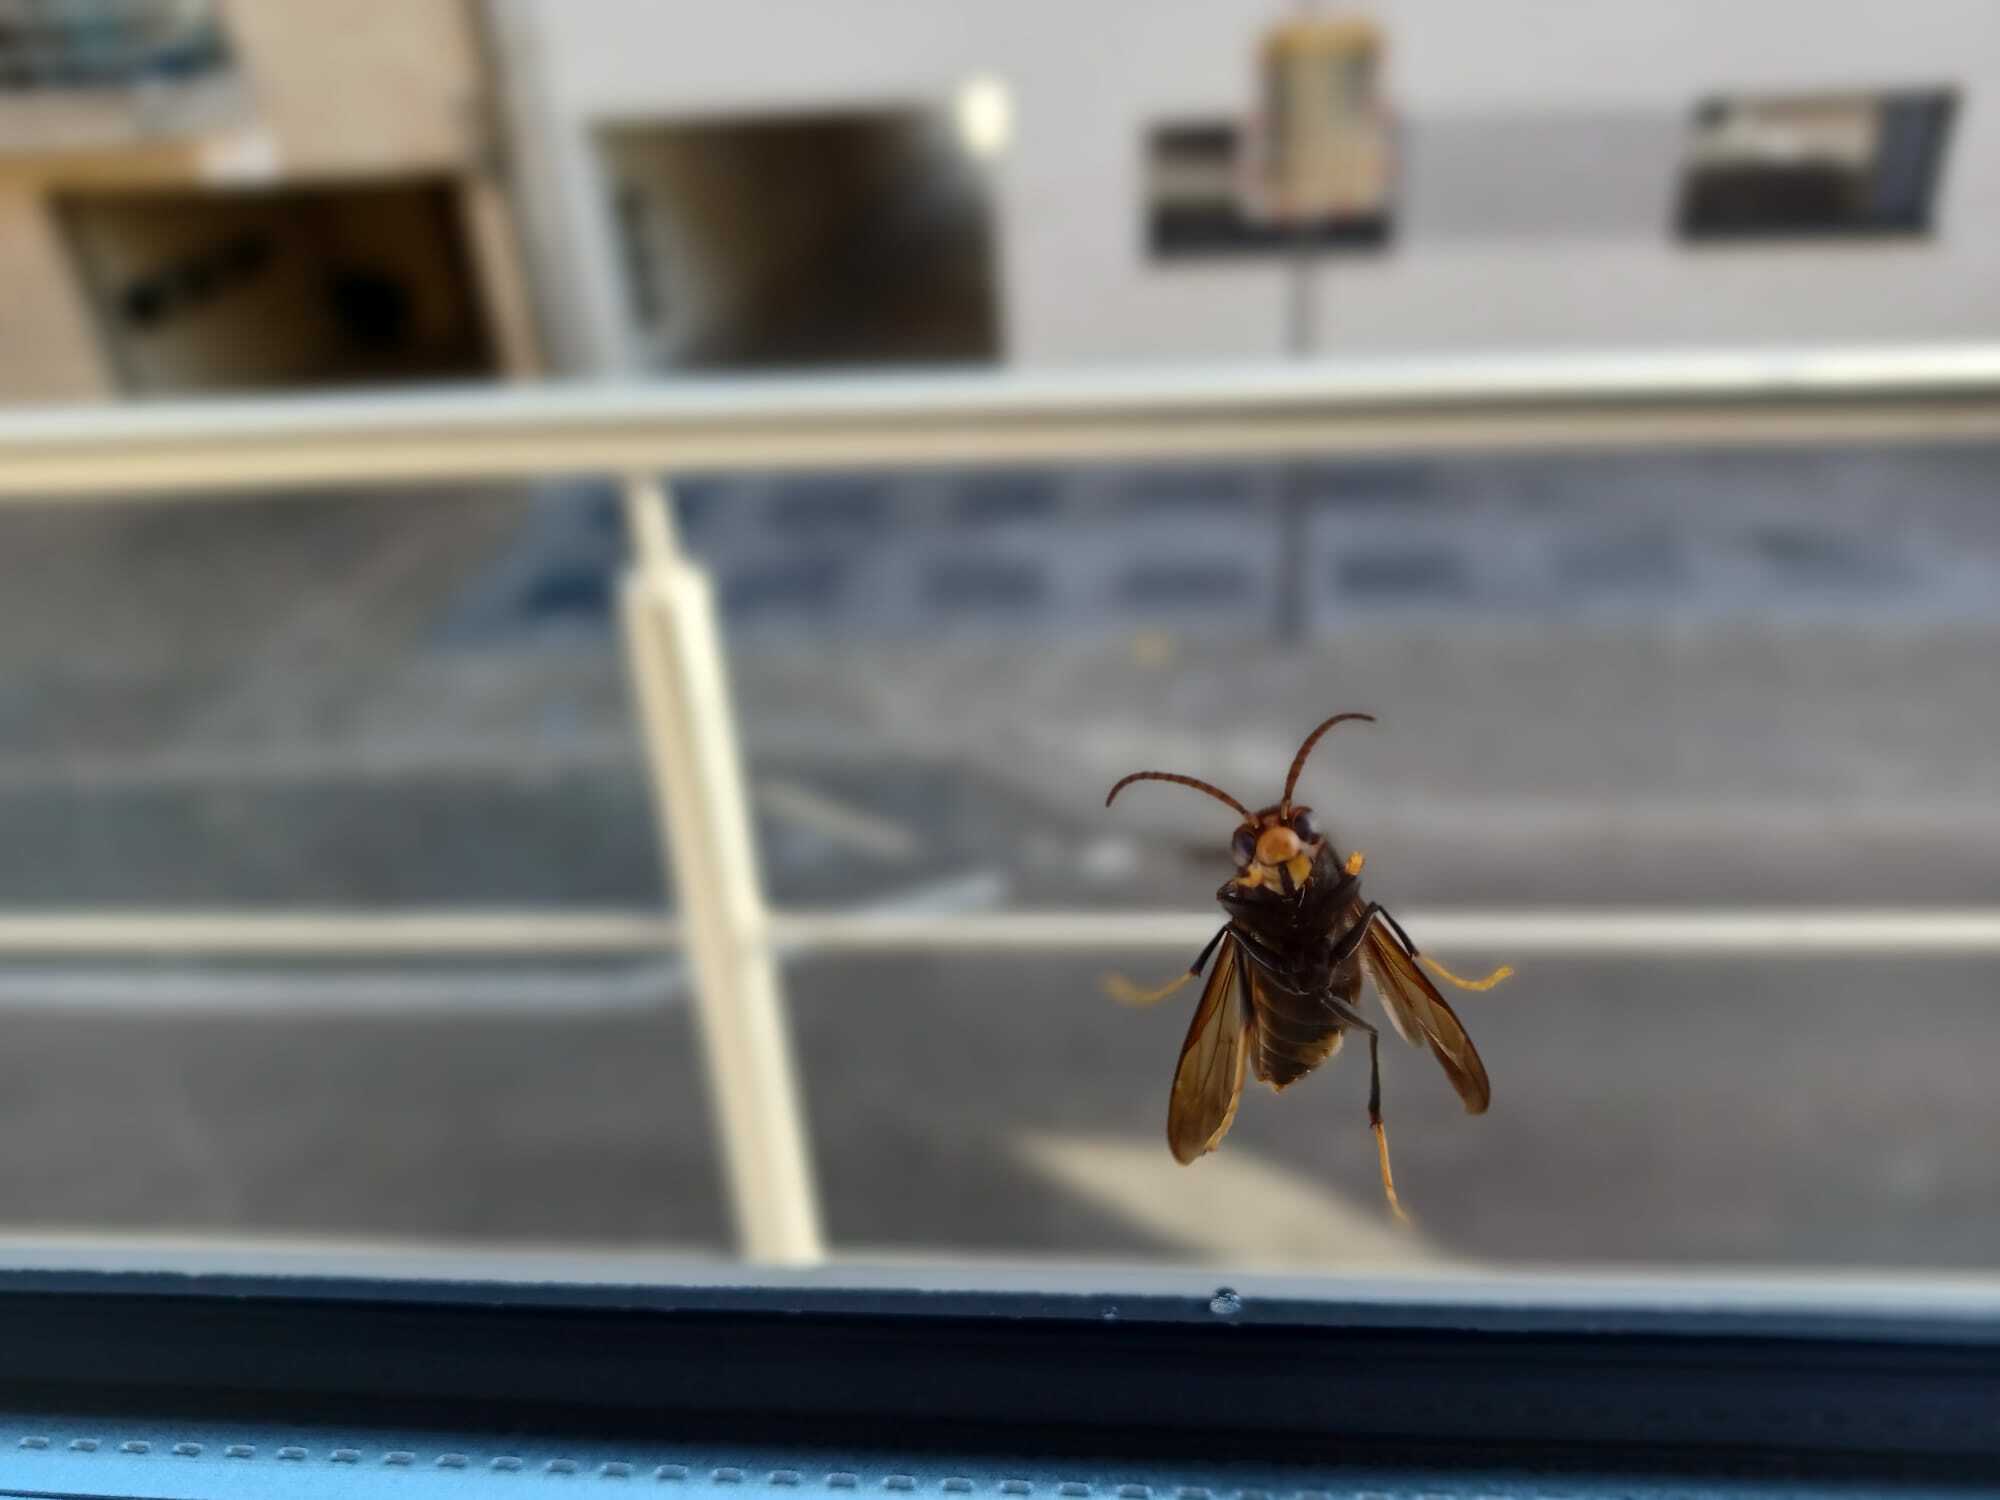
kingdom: Animalia
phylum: Arthropoda
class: Insecta
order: Hymenoptera
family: Vespidae
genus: Vespa
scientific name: Vespa velutina
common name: Asian hornet
